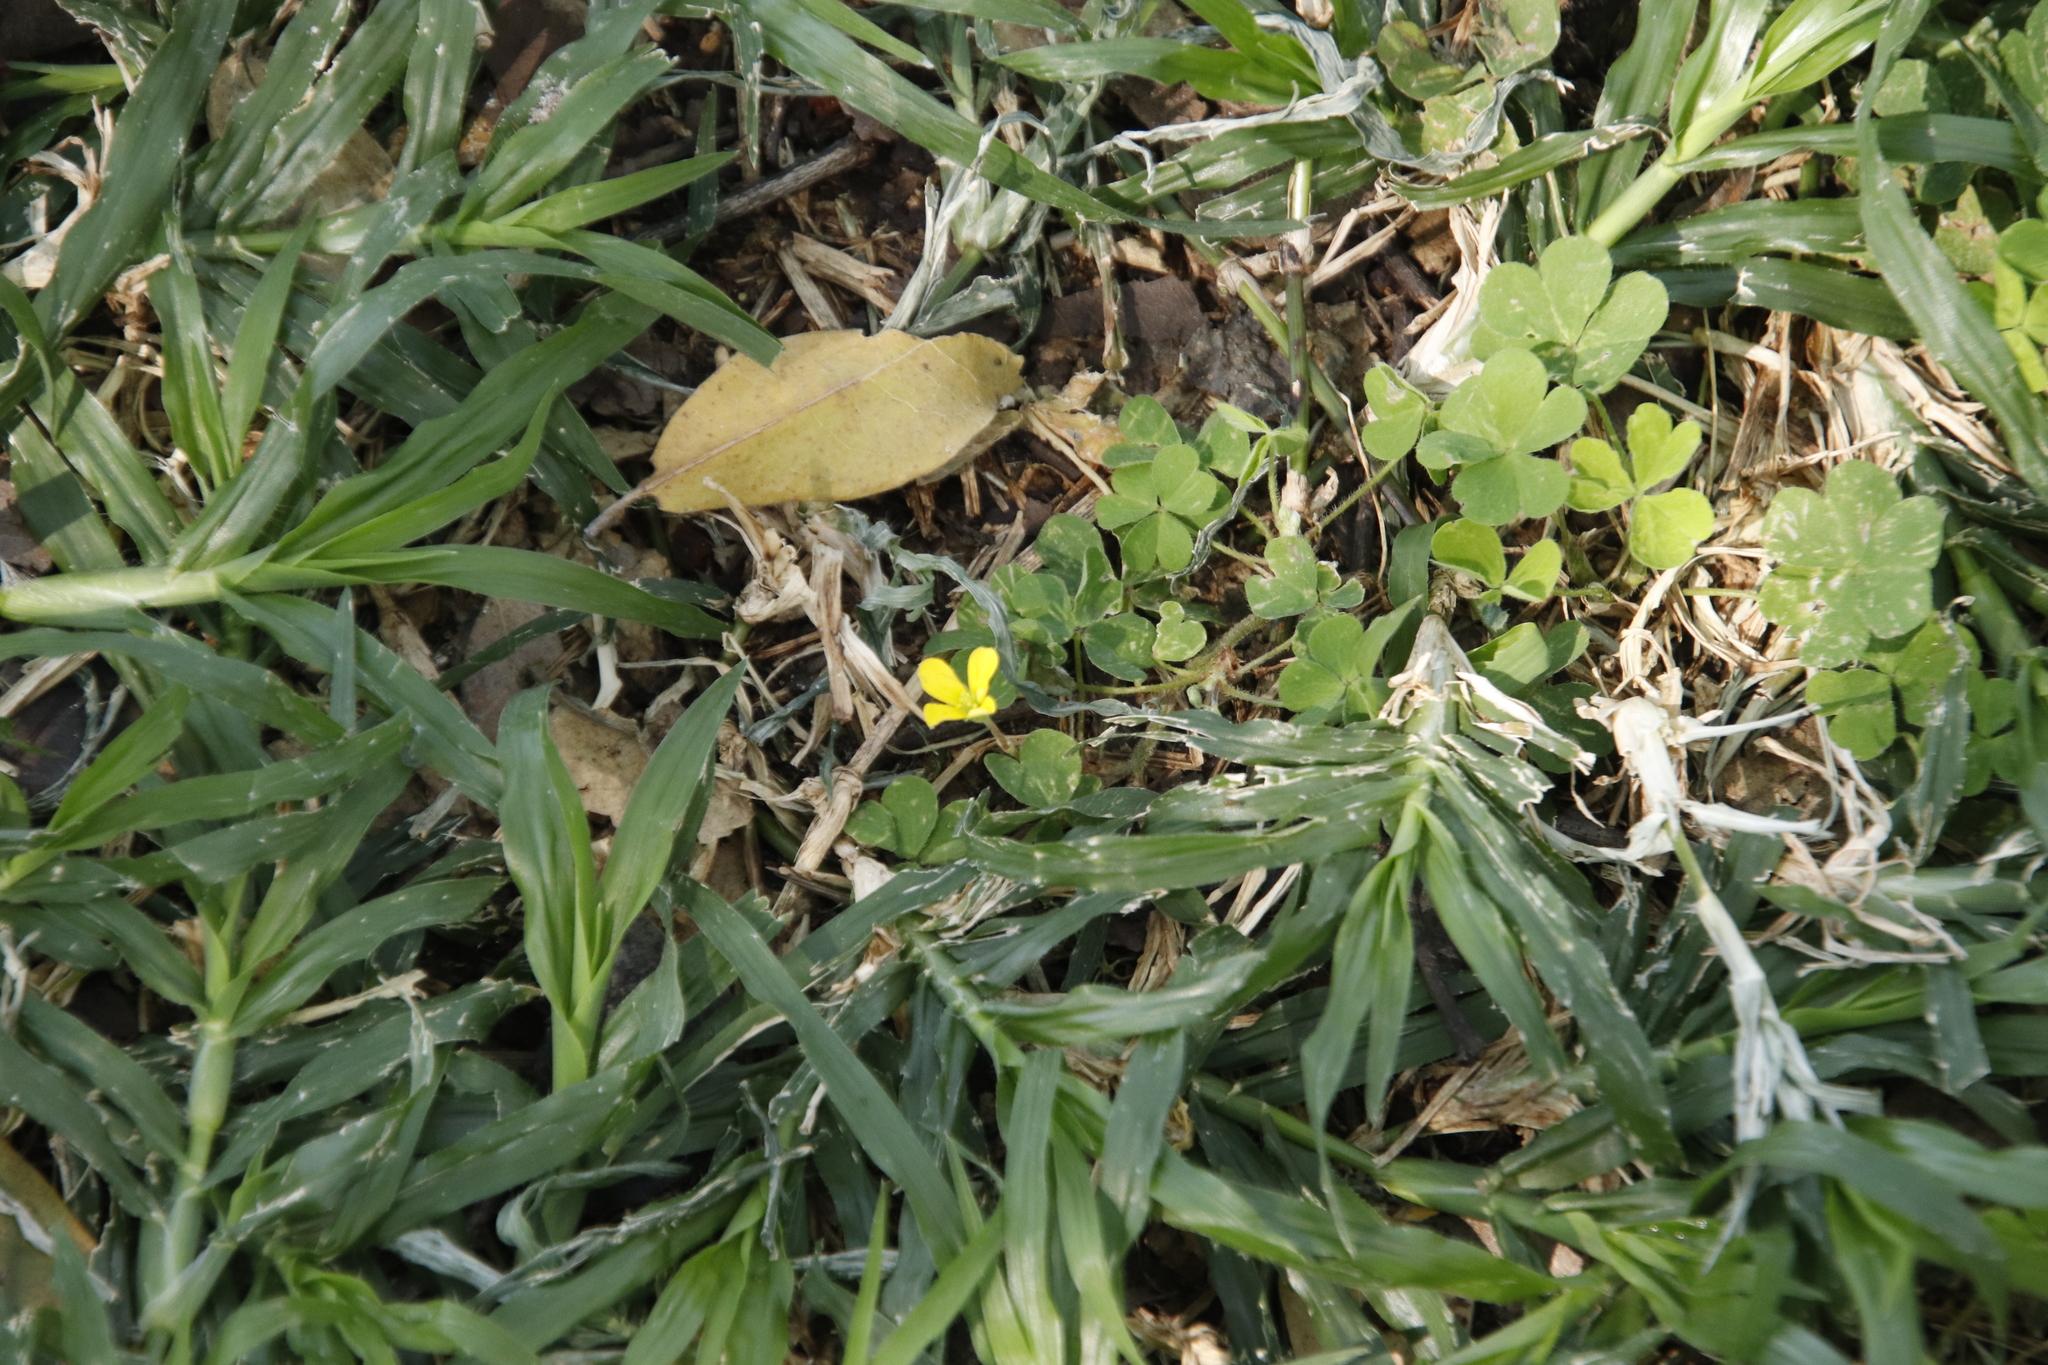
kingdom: Plantae
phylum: Tracheophyta
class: Magnoliopsida
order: Oxalidales
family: Oxalidaceae
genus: Oxalis
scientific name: Oxalis corniculata
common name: Procumbent yellow-sorrel
